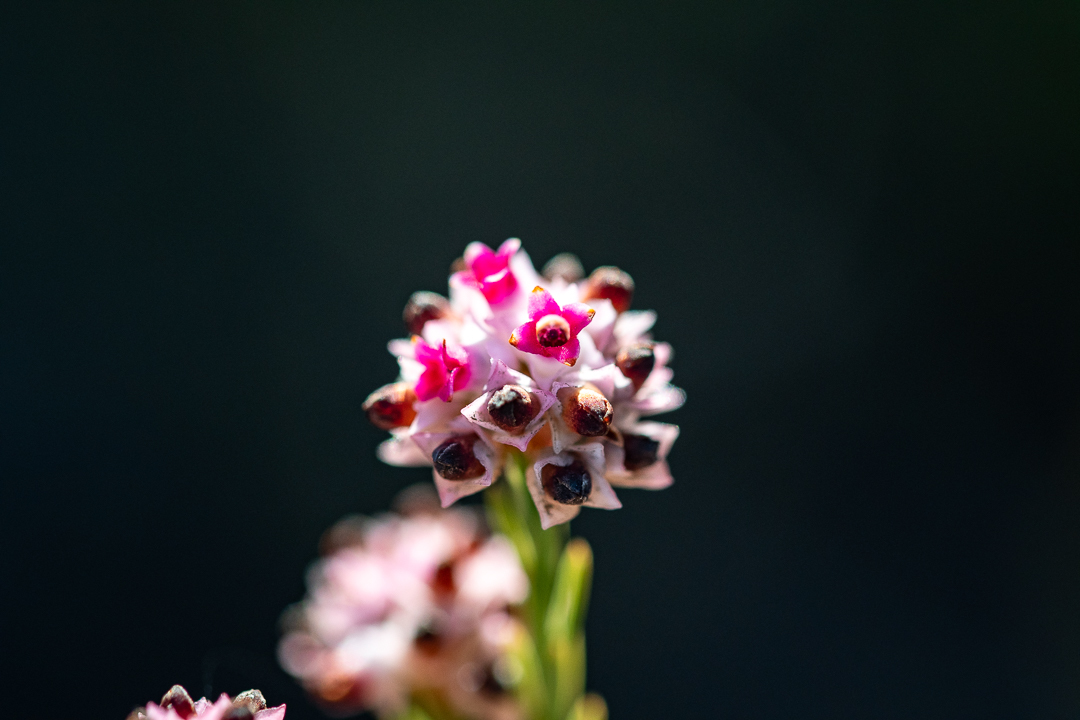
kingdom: Plantae
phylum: Tracheophyta
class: Magnoliopsida
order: Ericales
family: Ericaceae
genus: Erica
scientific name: Erica articularis
